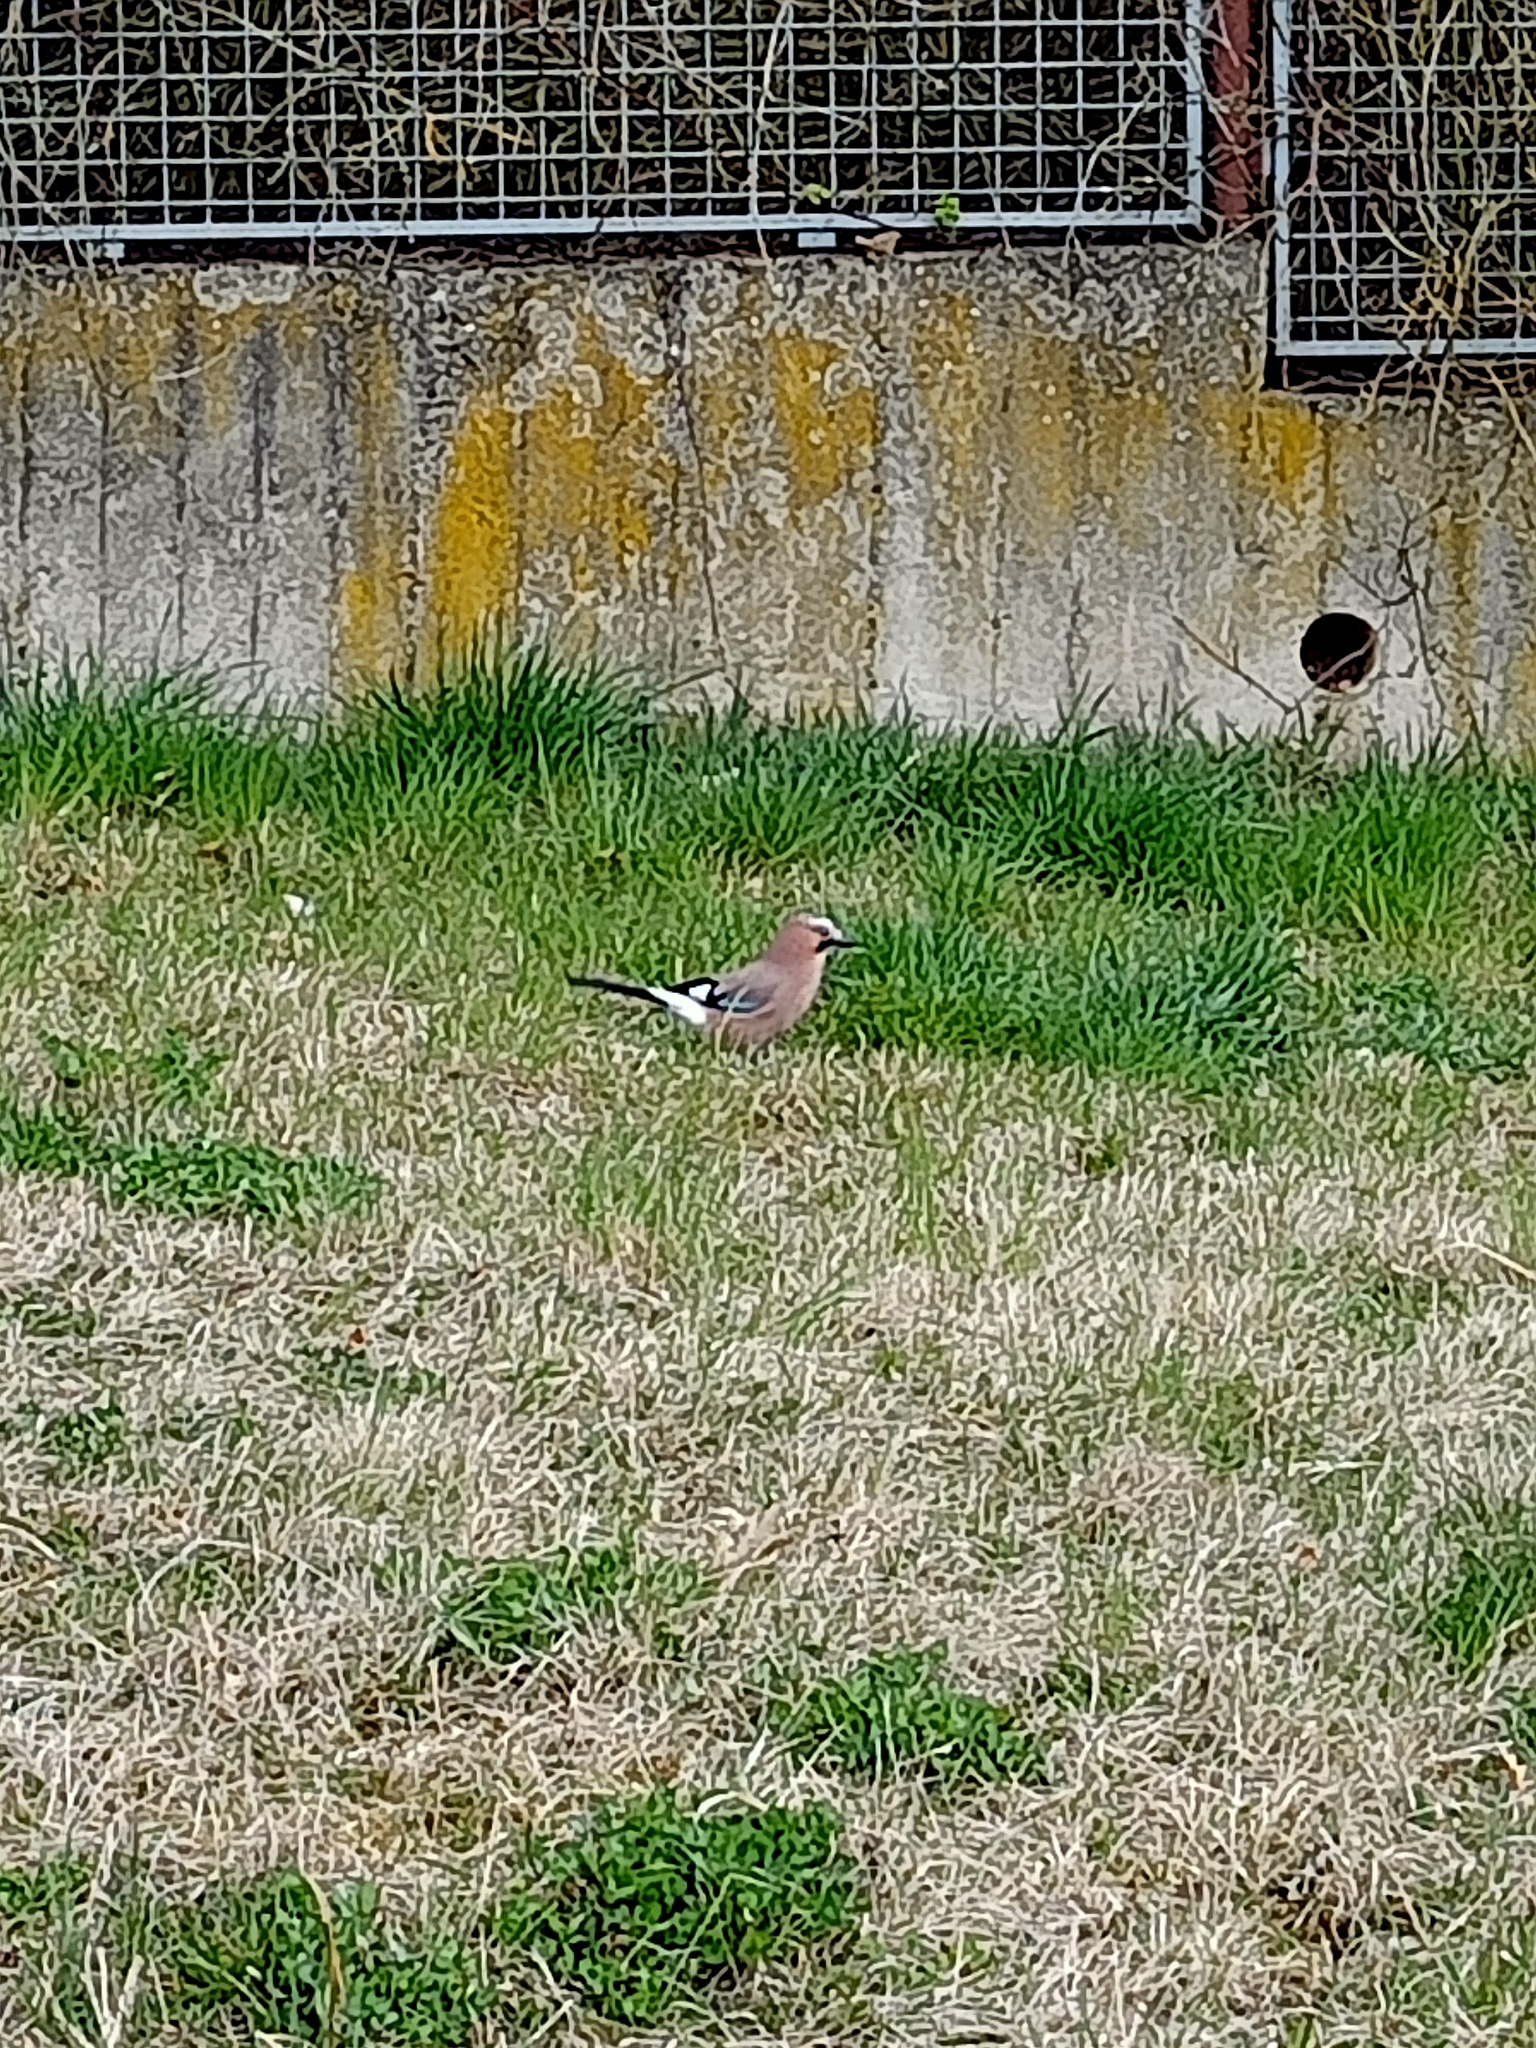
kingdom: Animalia
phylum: Chordata
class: Aves
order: Passeriformes
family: Corvidae
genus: Garrulus
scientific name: Garrulus glandarius
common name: Eurasian jay
